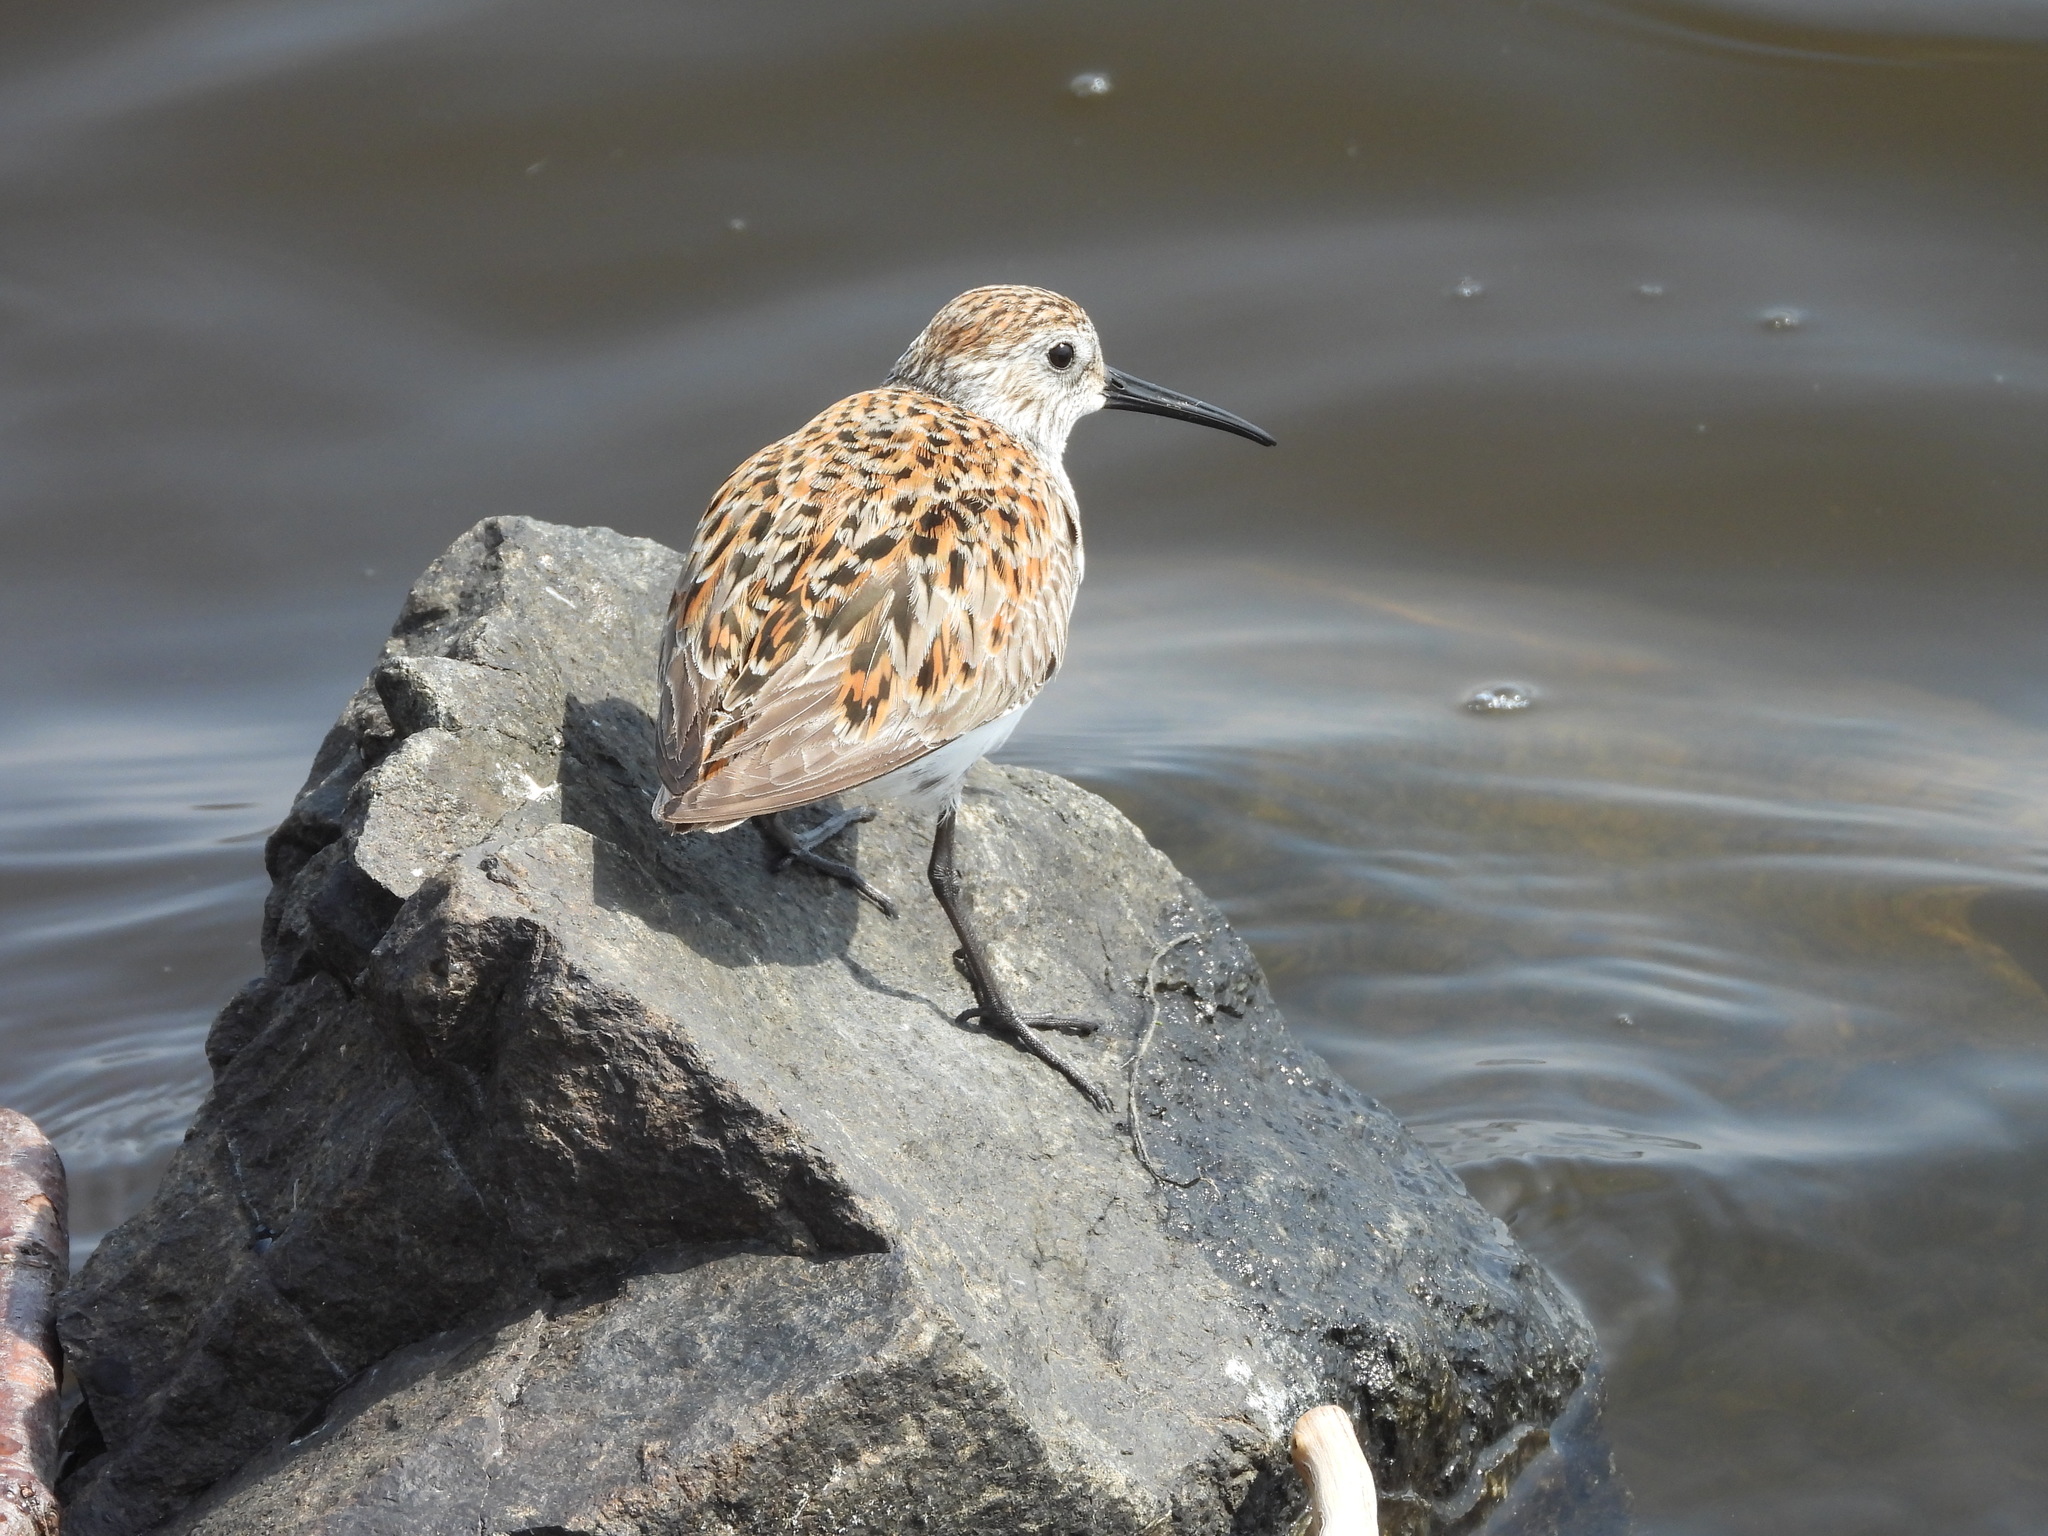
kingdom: Animalia
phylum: Chordata
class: Aves
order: Charadriiformes
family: Scolopacidae
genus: Calidris
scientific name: Calidris alpina
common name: Dunlin
